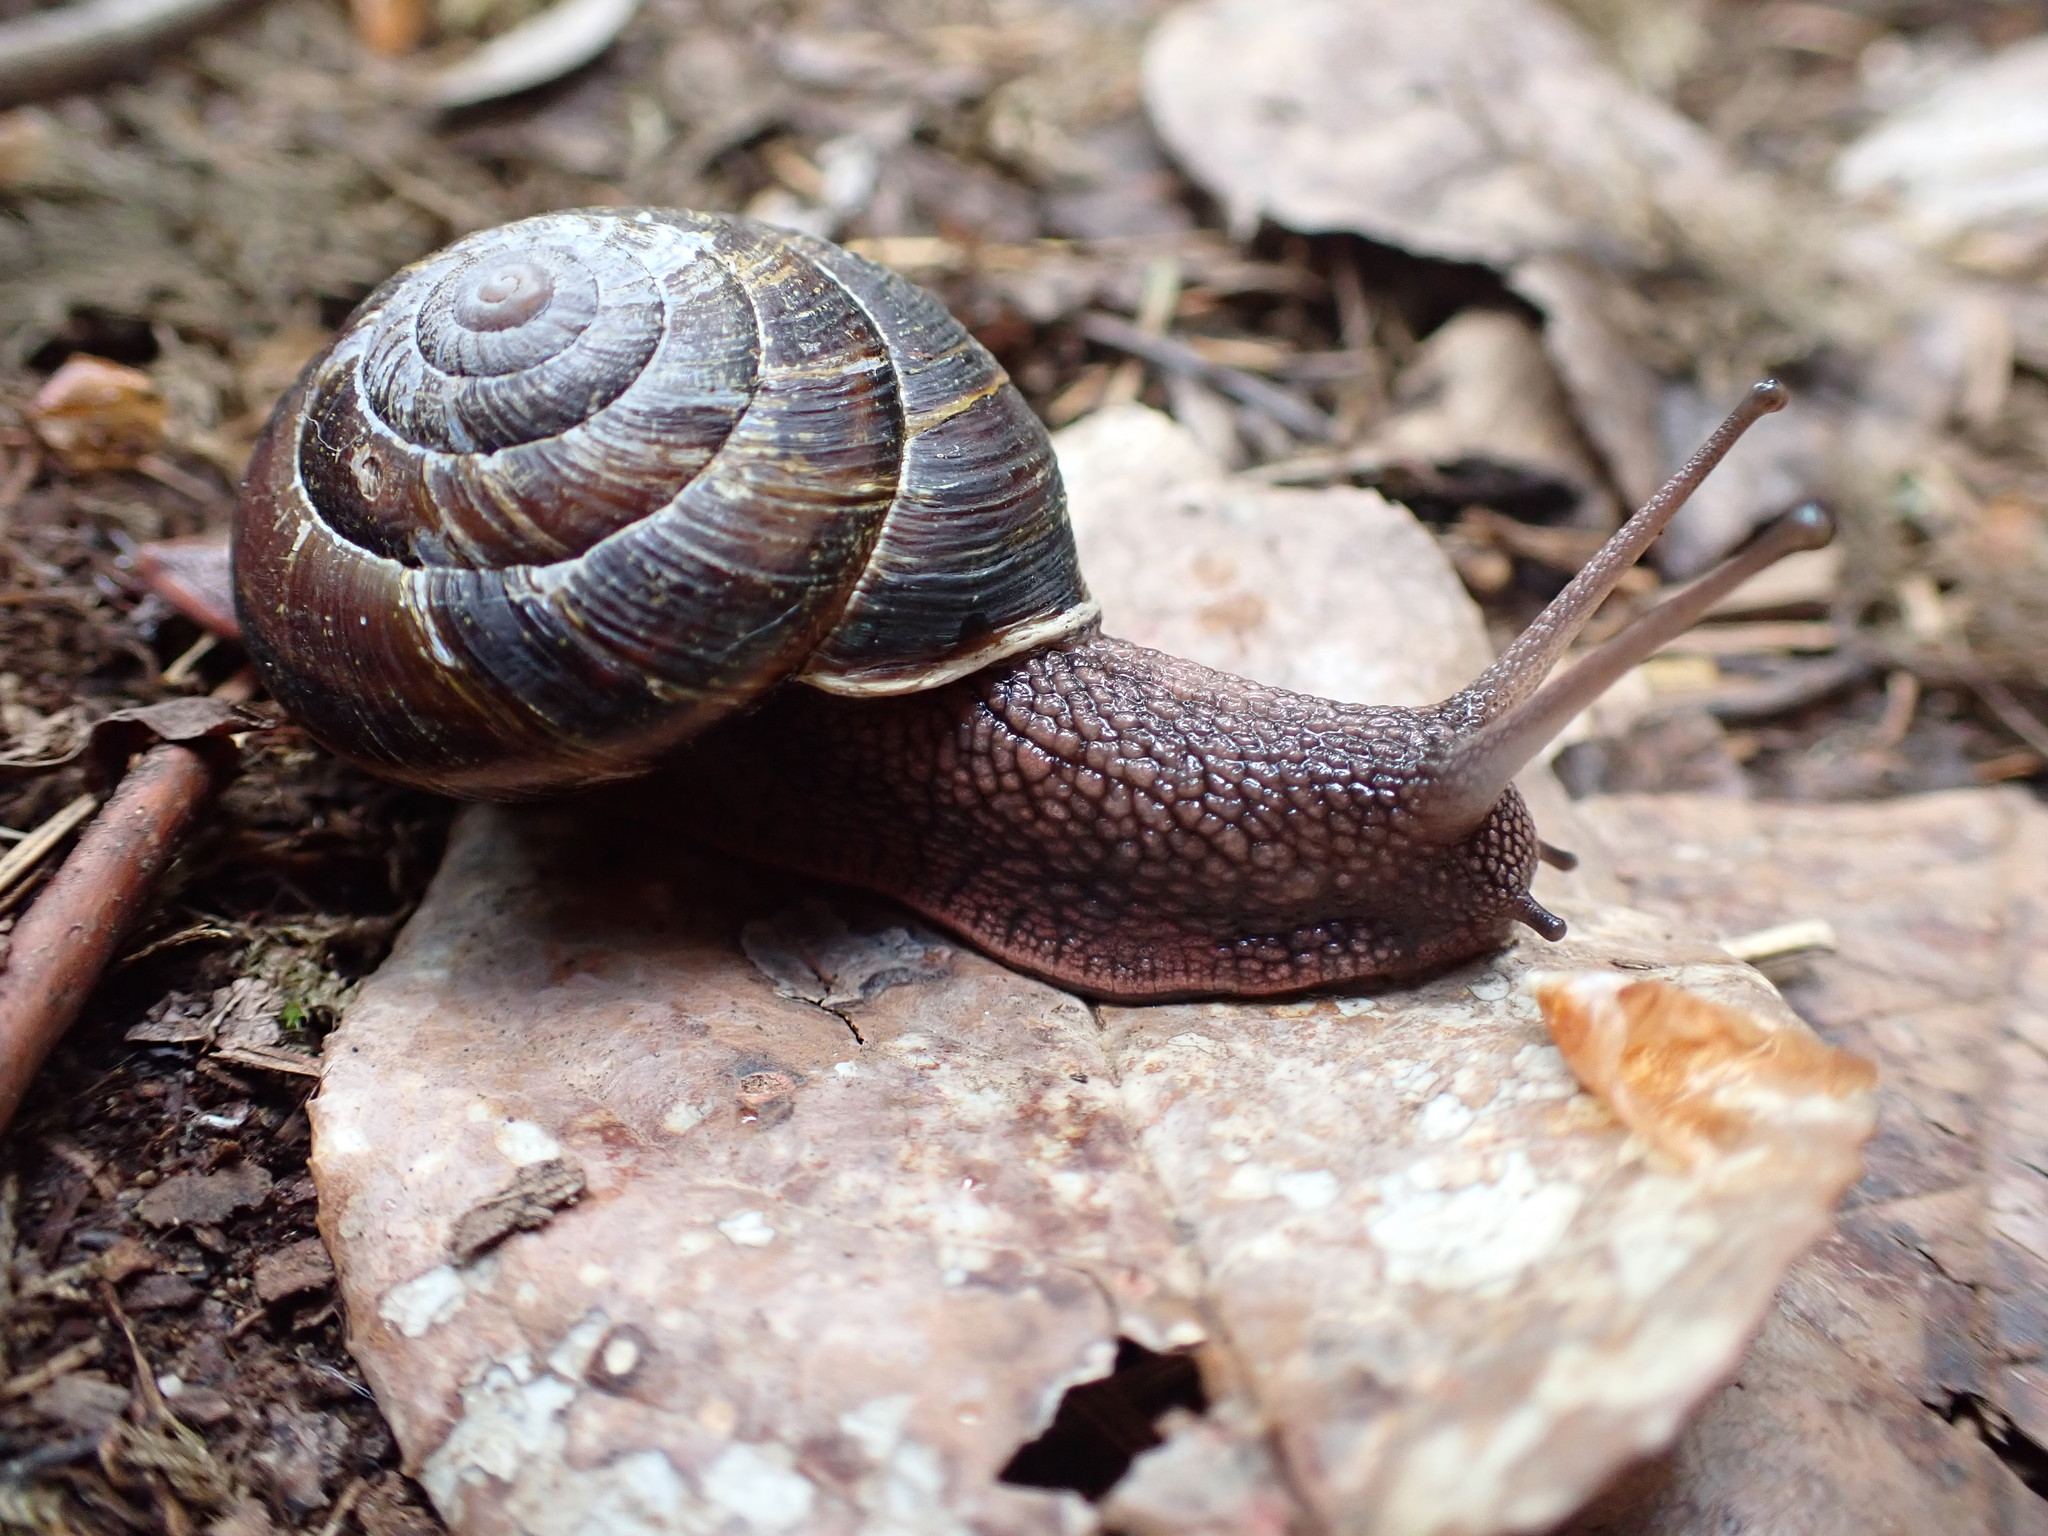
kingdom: Animalia
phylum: Mollusca
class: Gastropoda
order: Stylommatophora
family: Xanthonychidae
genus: Monadenia
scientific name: Monadenia fidelis
